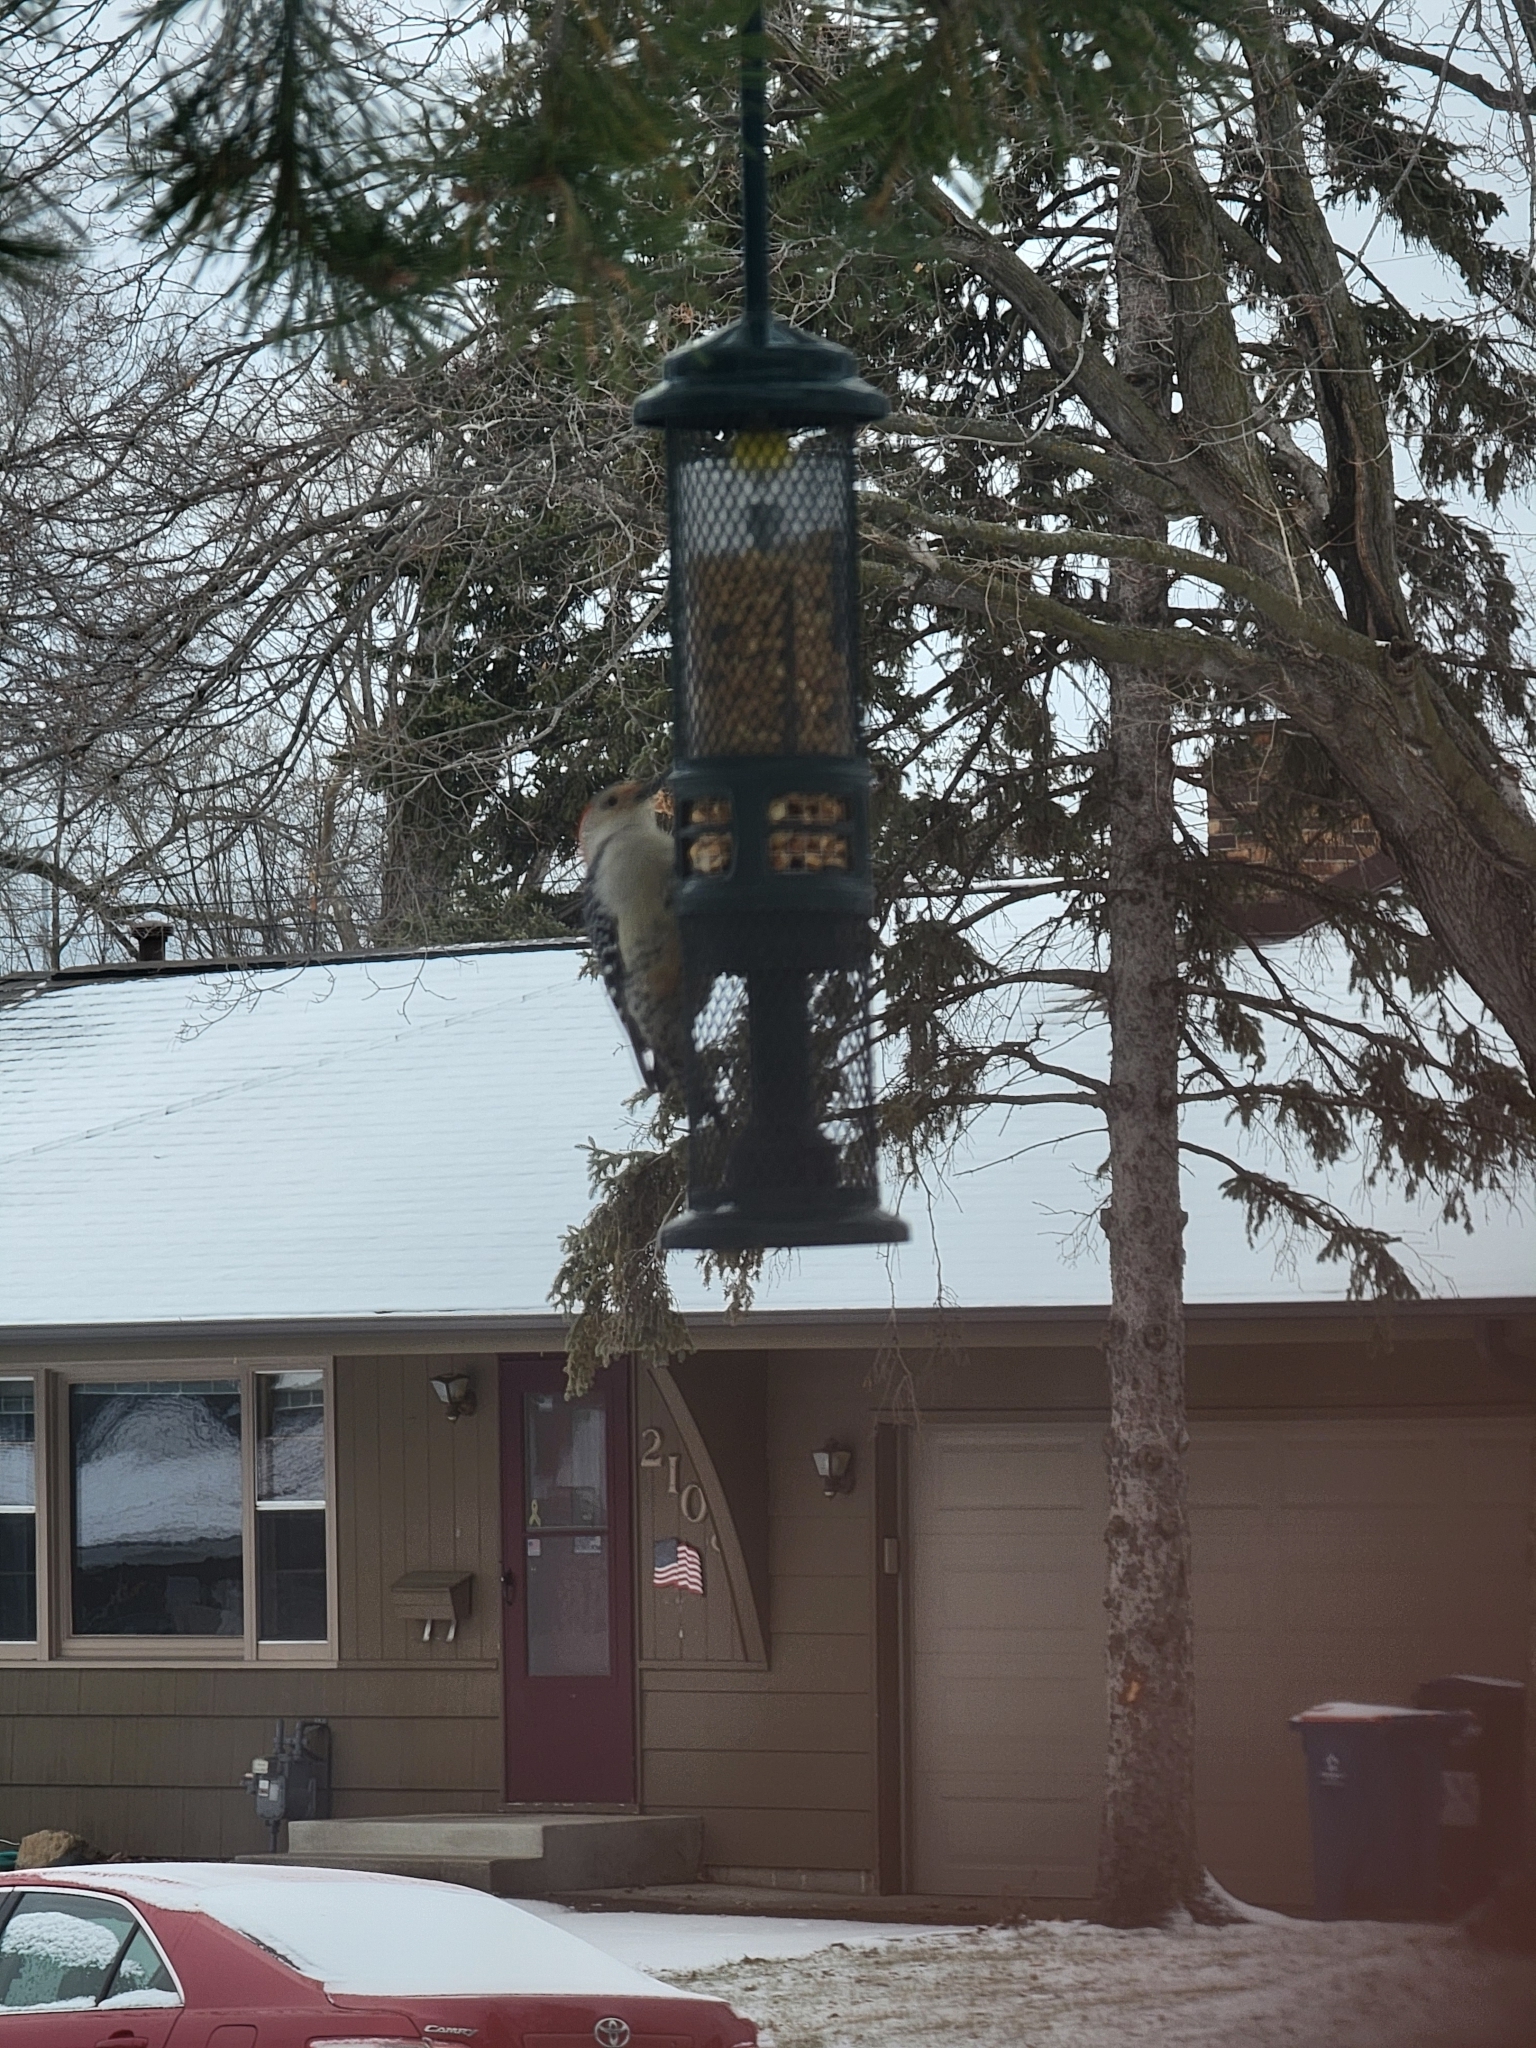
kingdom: Animalia
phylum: Chordata
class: Aves
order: Piciformes
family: Picidae
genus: Melanerpes
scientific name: Melanerpes carolinus
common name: Red-bellied woodpecker
